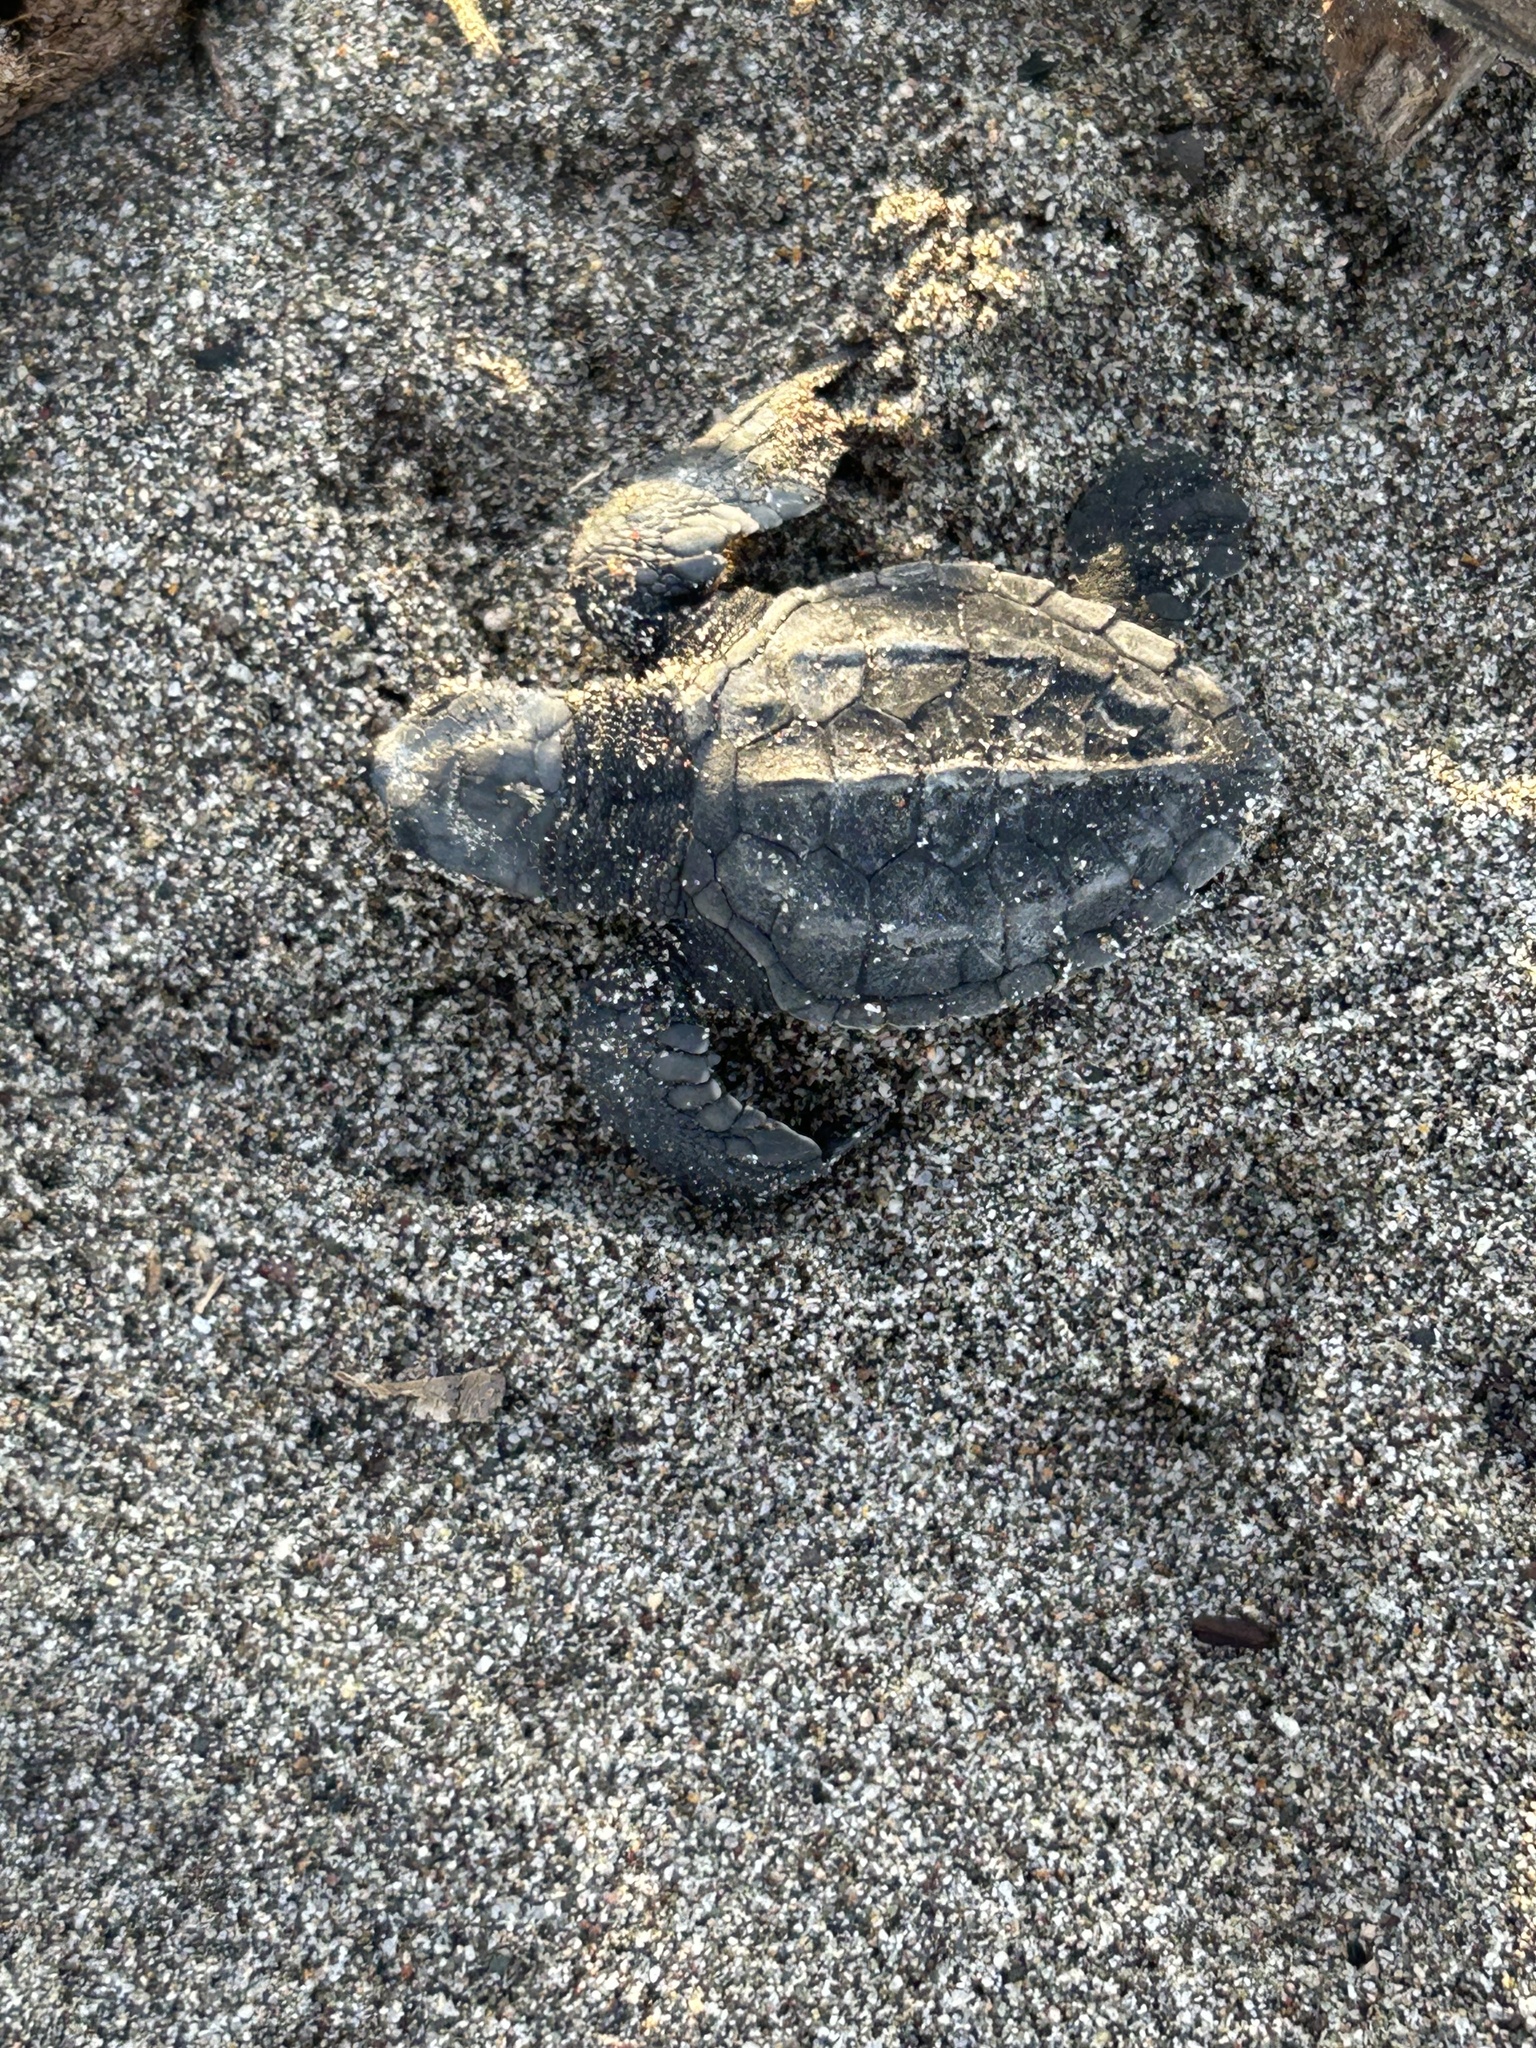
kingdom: Animalia
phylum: Chordata
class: Testudines
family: Cheloniidae
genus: Lepidochelys
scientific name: Lepidochelys olivacea
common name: Olive ridley
